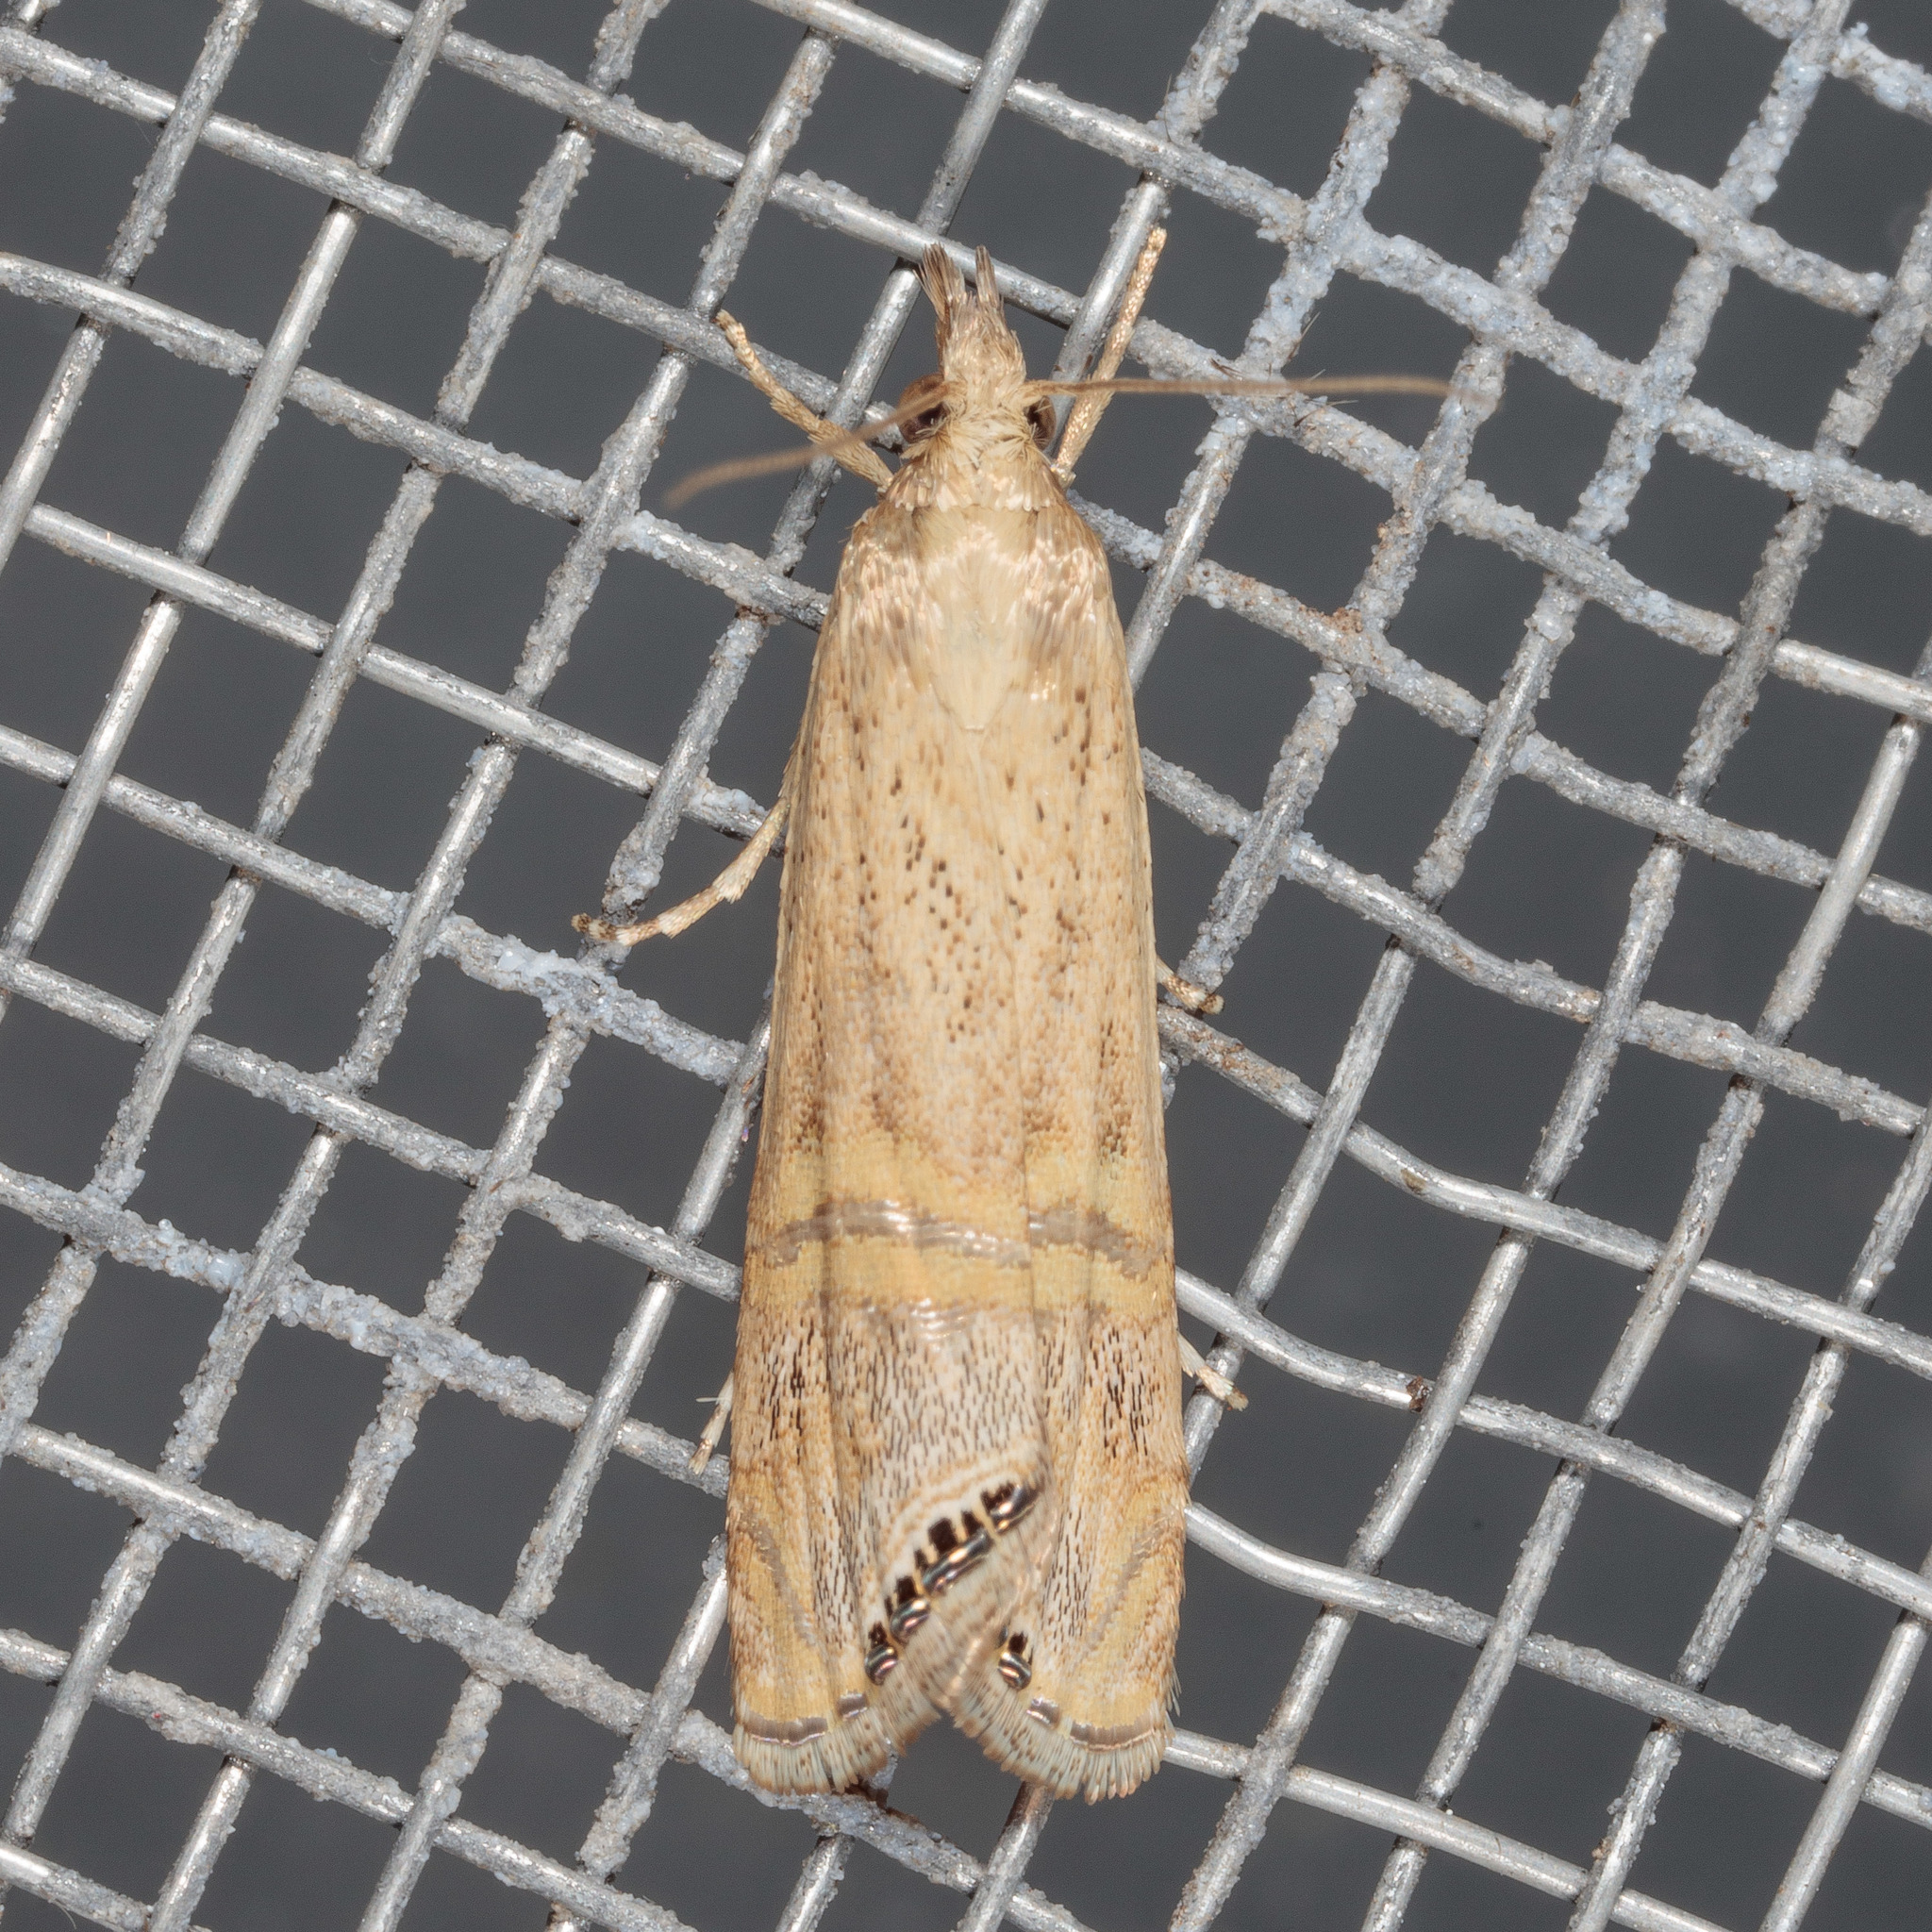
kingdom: Animalia
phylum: Arthropoda
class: Insecta
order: Lepidoptera
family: Crambidae
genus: Euchromius
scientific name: Euchromius ocellea
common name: Necklace veneer moth
